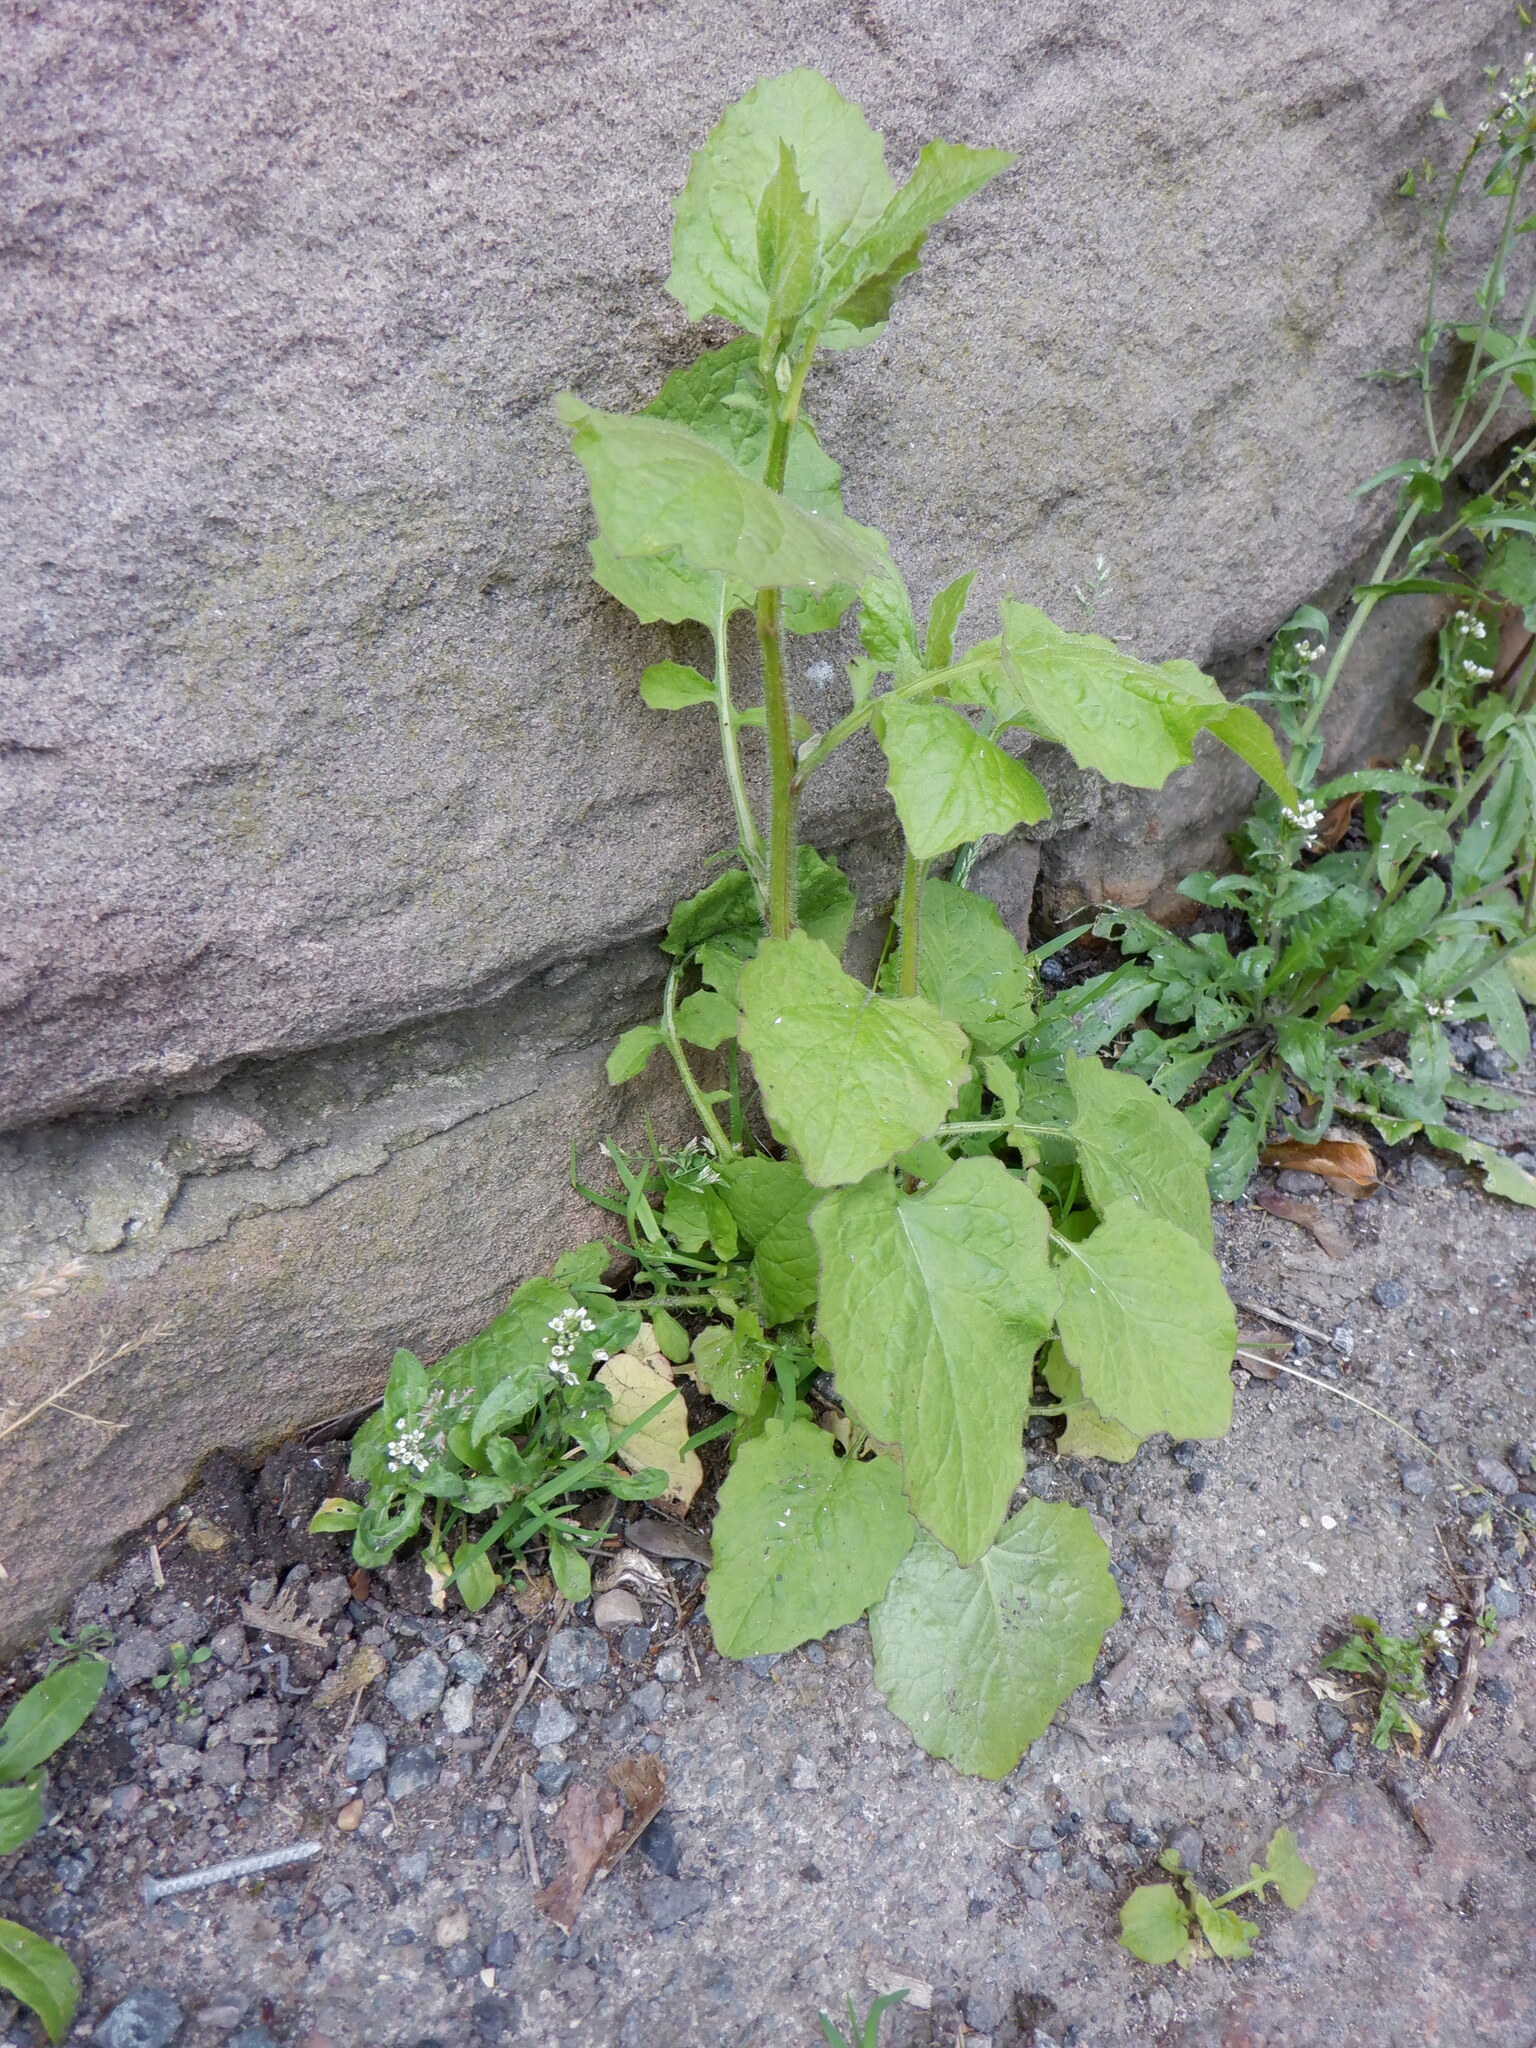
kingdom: Plantae
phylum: Tracheophyta
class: Magnoliopsida
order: Asterales
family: Asteraceae
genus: Lapsana
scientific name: Lapsana communis
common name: Nipplewort
